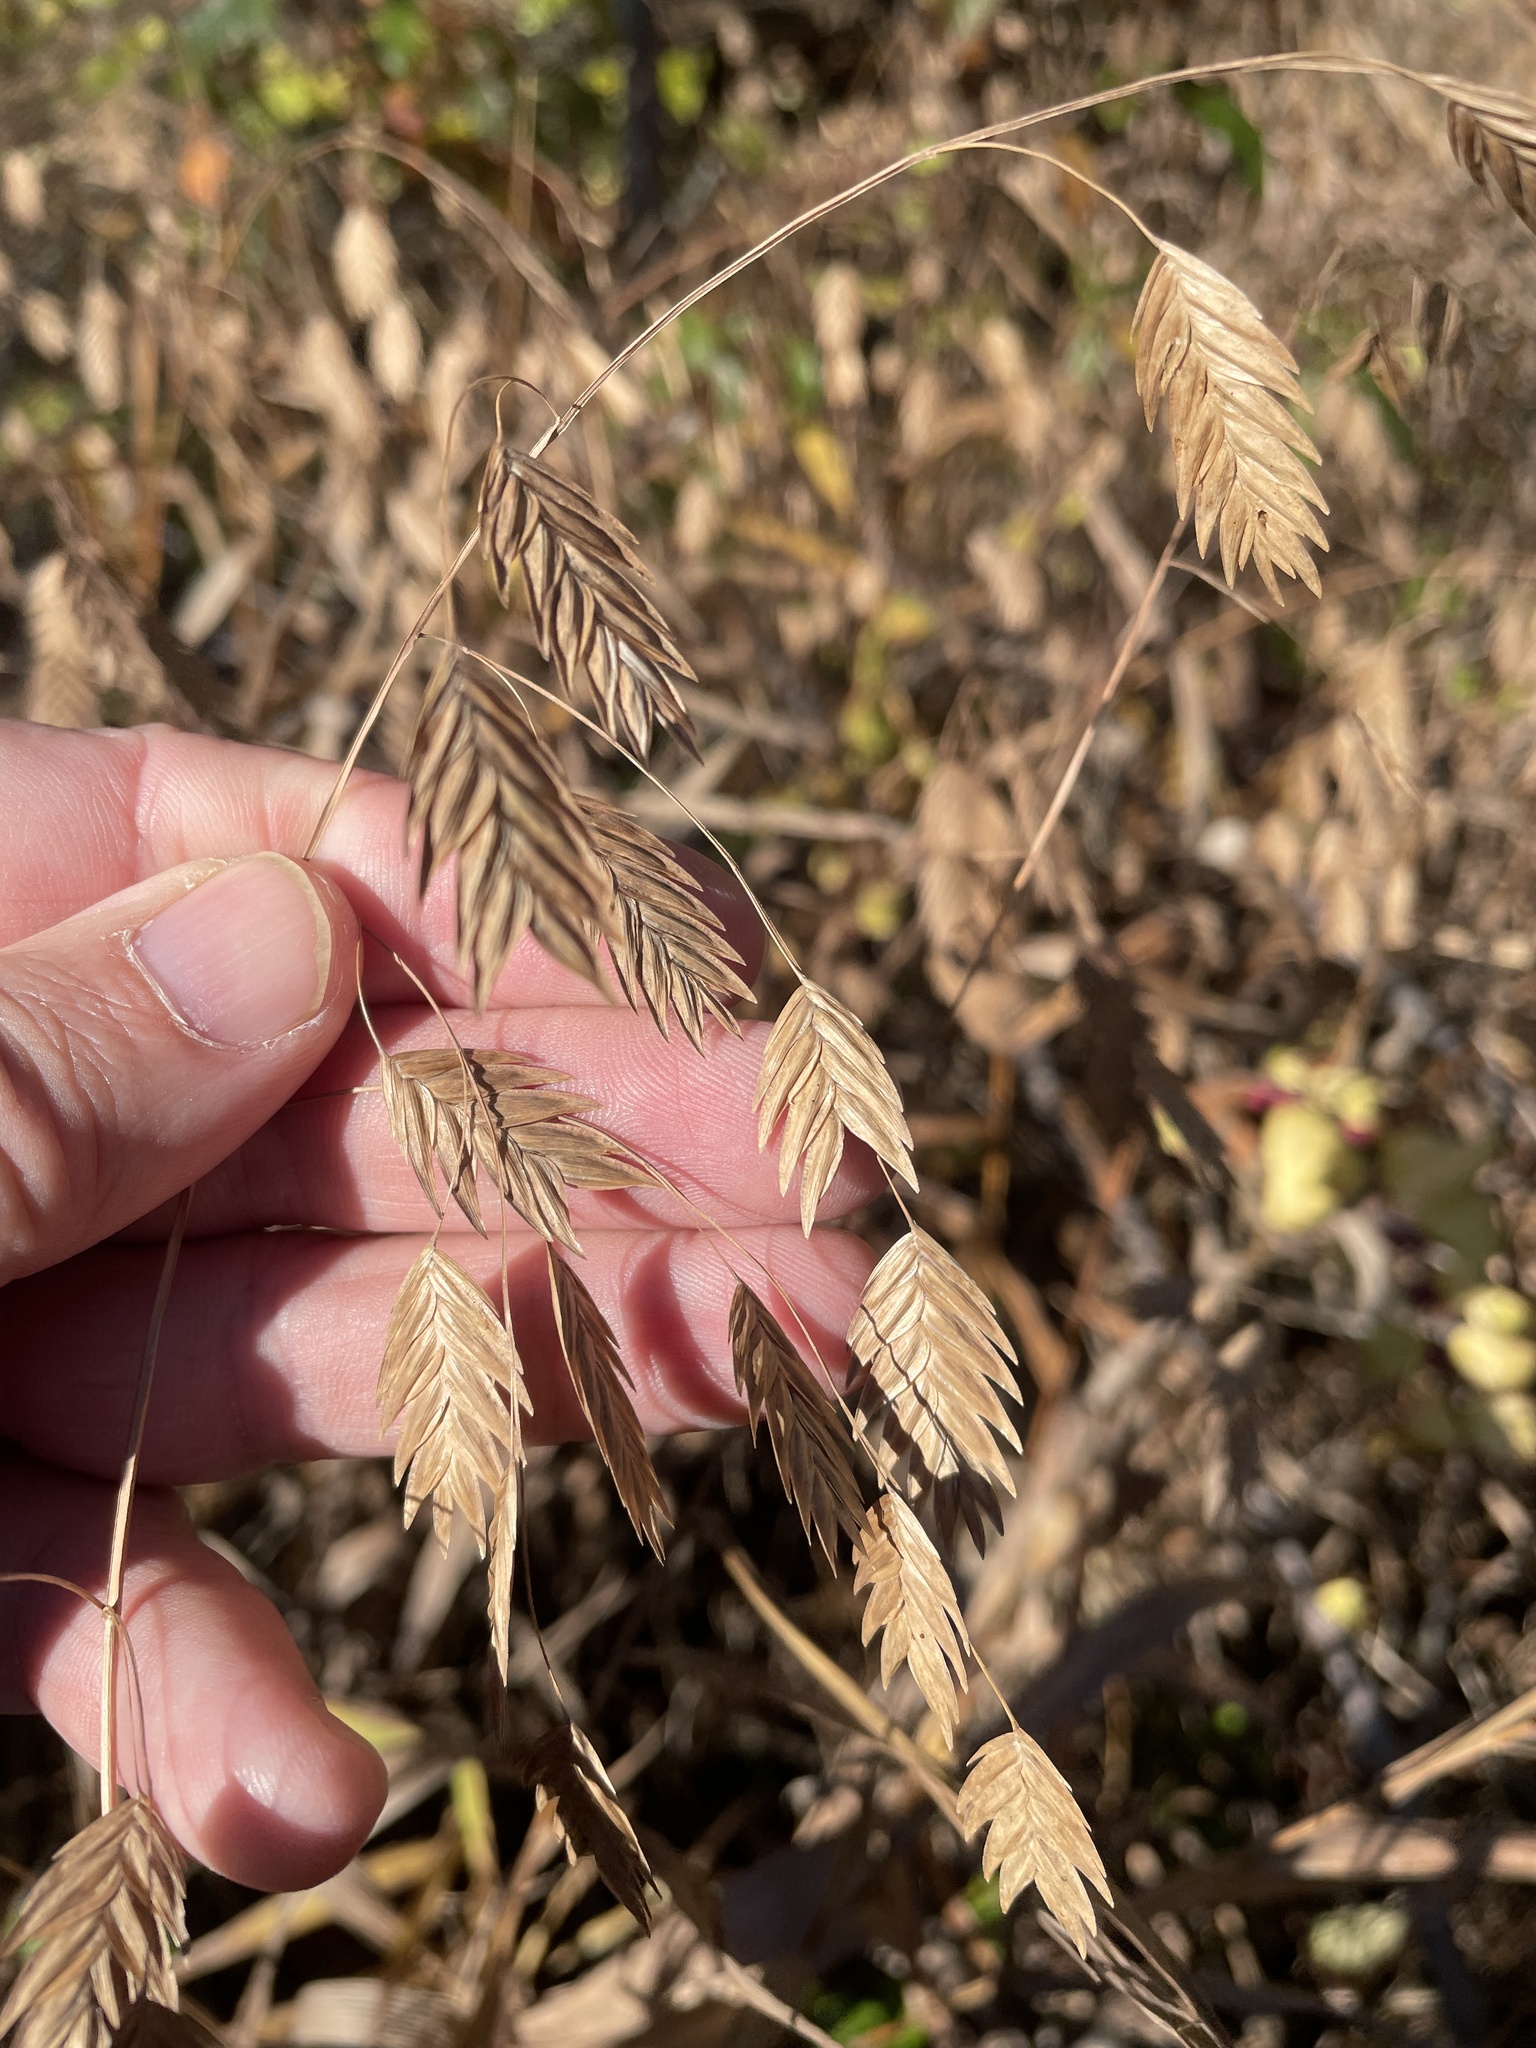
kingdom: Plantae
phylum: Tracheophyta
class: Liliopsida
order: Poales
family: Poaceae
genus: Chasmanthium
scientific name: Chasmanthium latifolium
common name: Broad-leaved chasmanthium
